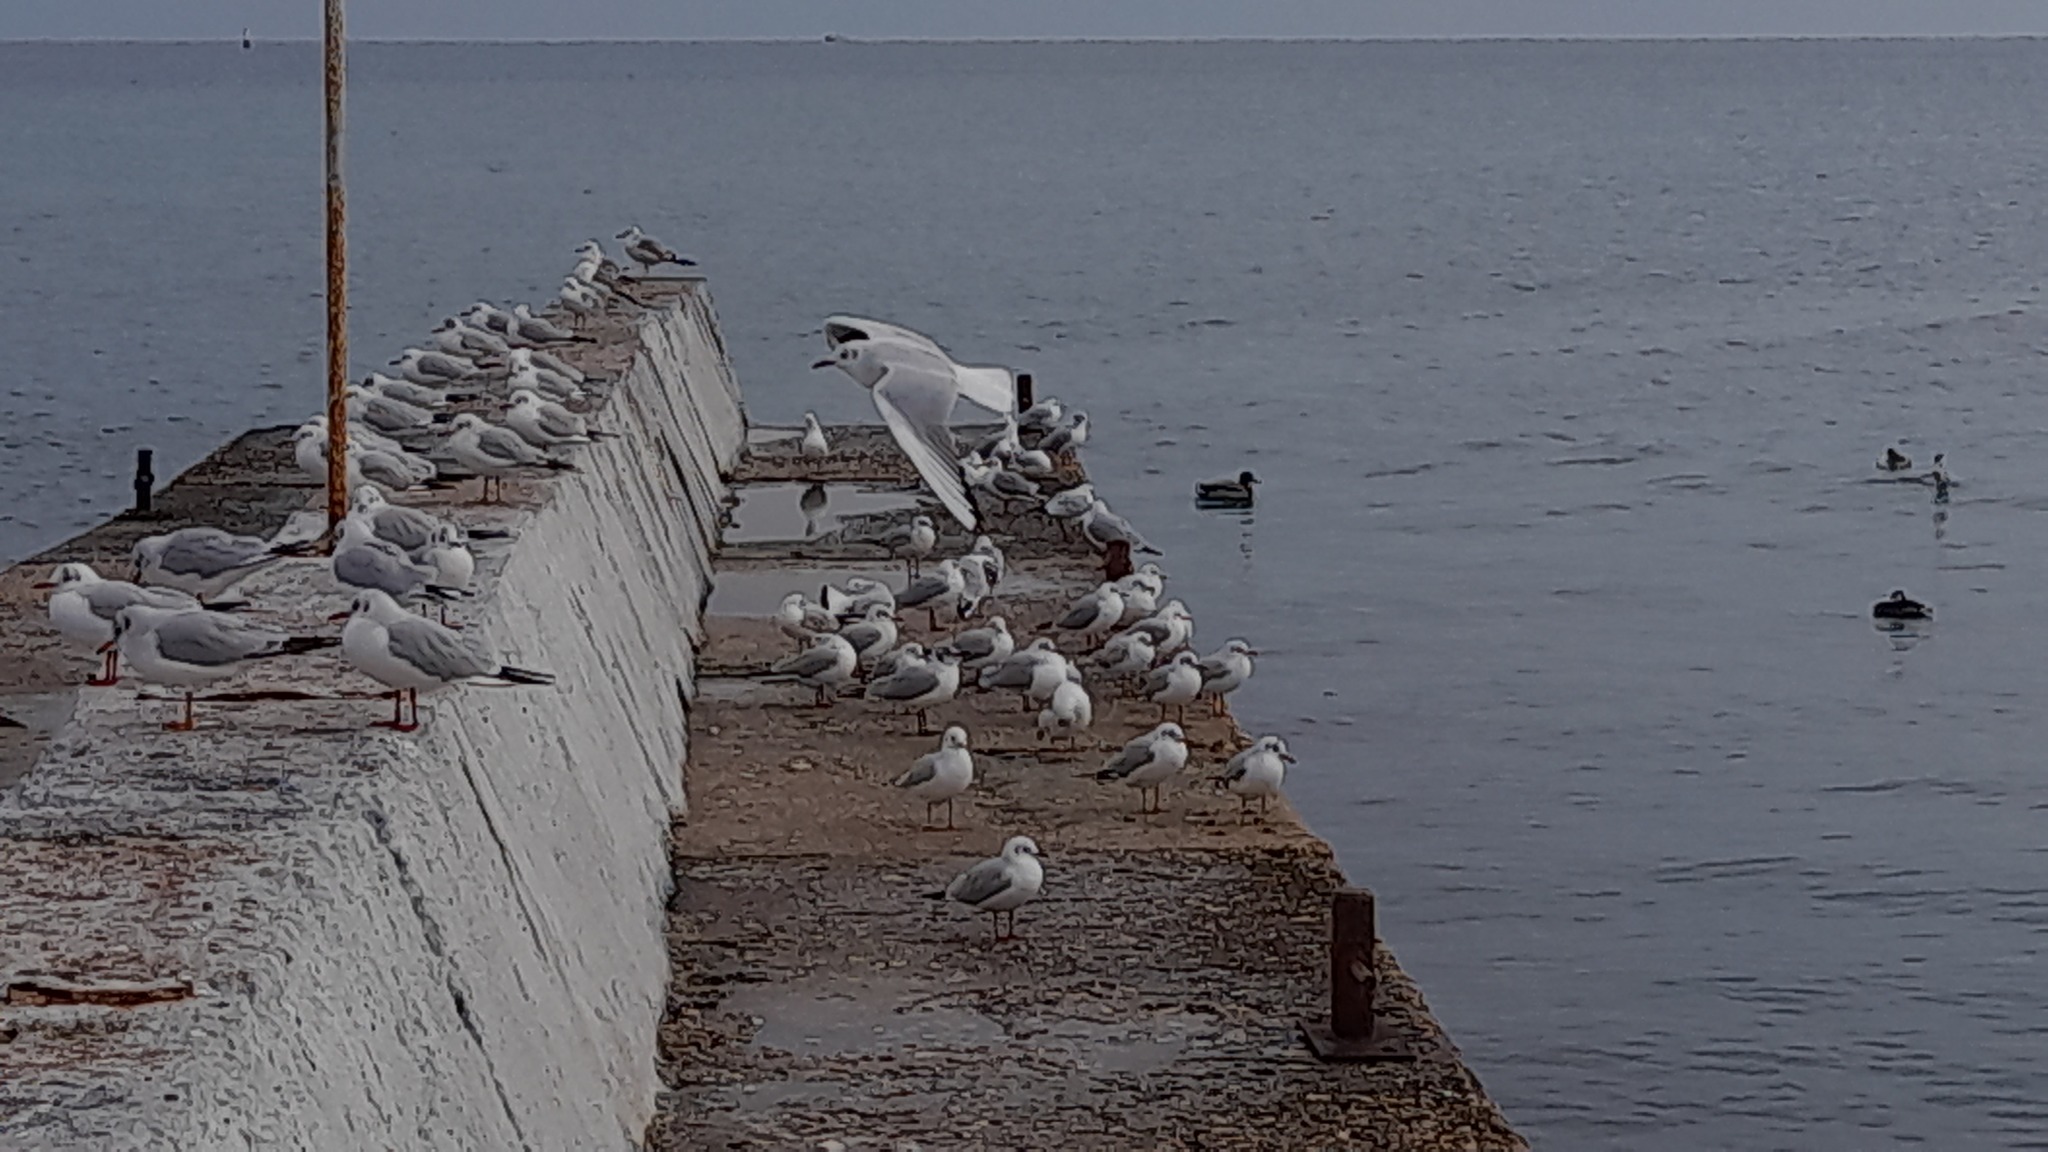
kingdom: Animalia
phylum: Chordata
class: Aves
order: Charadriiformes
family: Laridae
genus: Chroicocephalus
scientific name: Chroicocephalus ridibundus
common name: Black-headed gull
